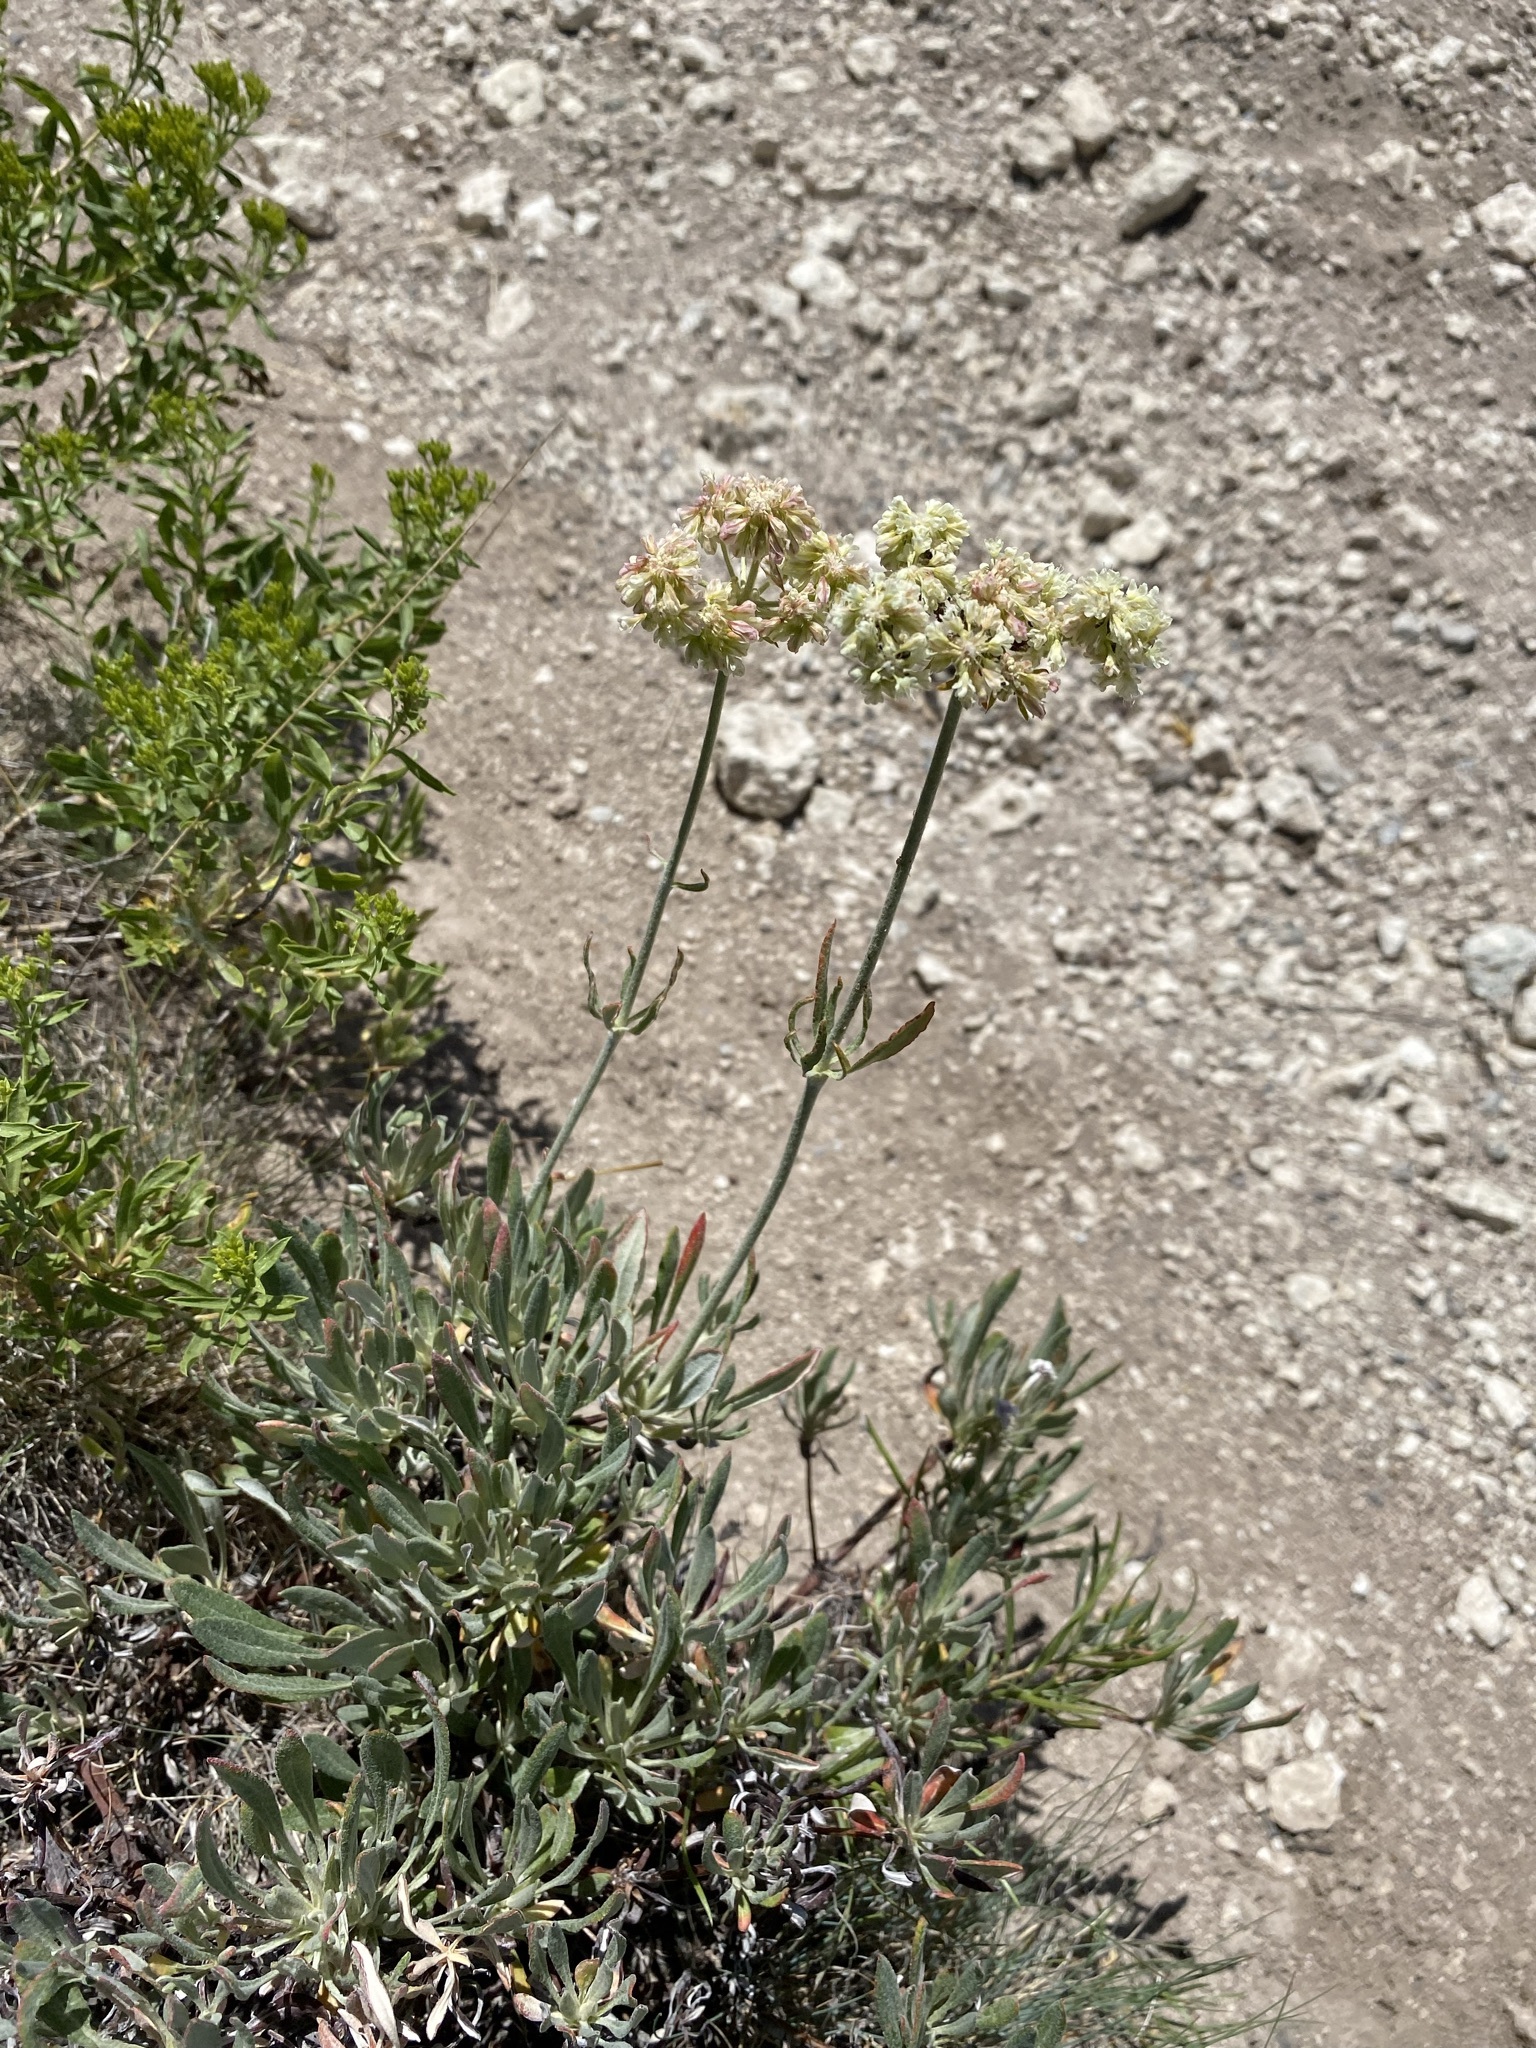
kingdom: Plantae
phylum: Tracheophyta
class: Magnoliopsida
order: Caryophyllales
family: Polygonaceae
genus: Eriogonum
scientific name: Eriogonum heracleoides
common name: Wyeth's buckwheat
